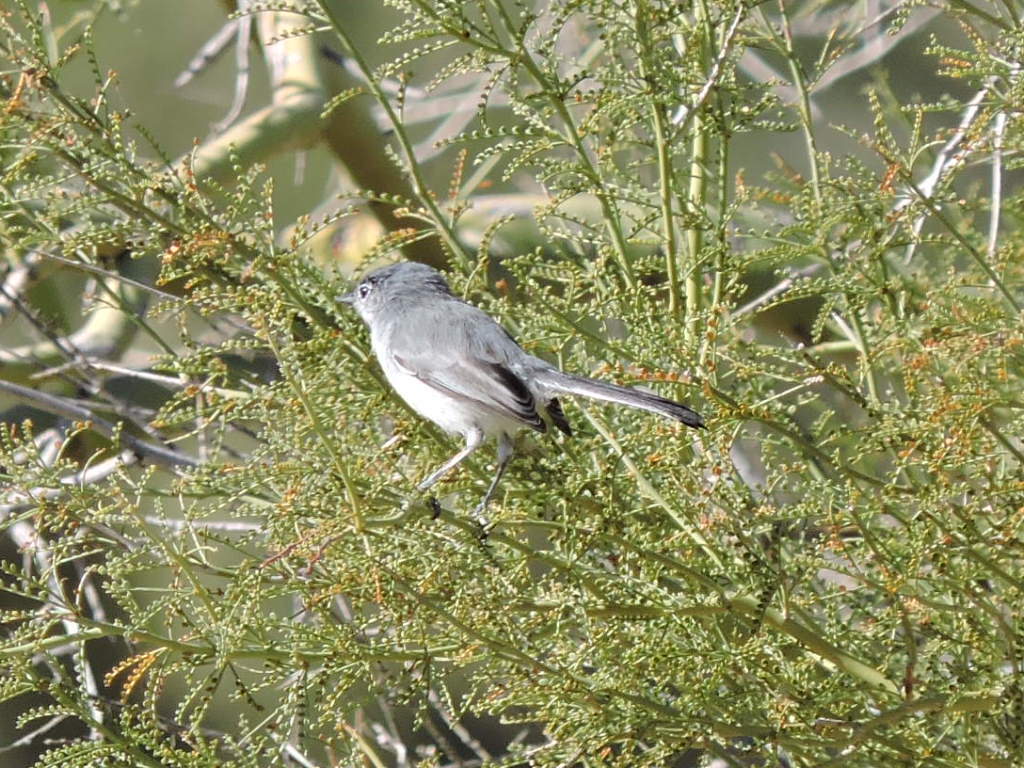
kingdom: Animalia
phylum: Chordata
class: Aves
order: Passeriformes
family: Polioptilidae
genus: Polioptila
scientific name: Polioptila caerulea
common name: Blue-gray gnatcatcher
